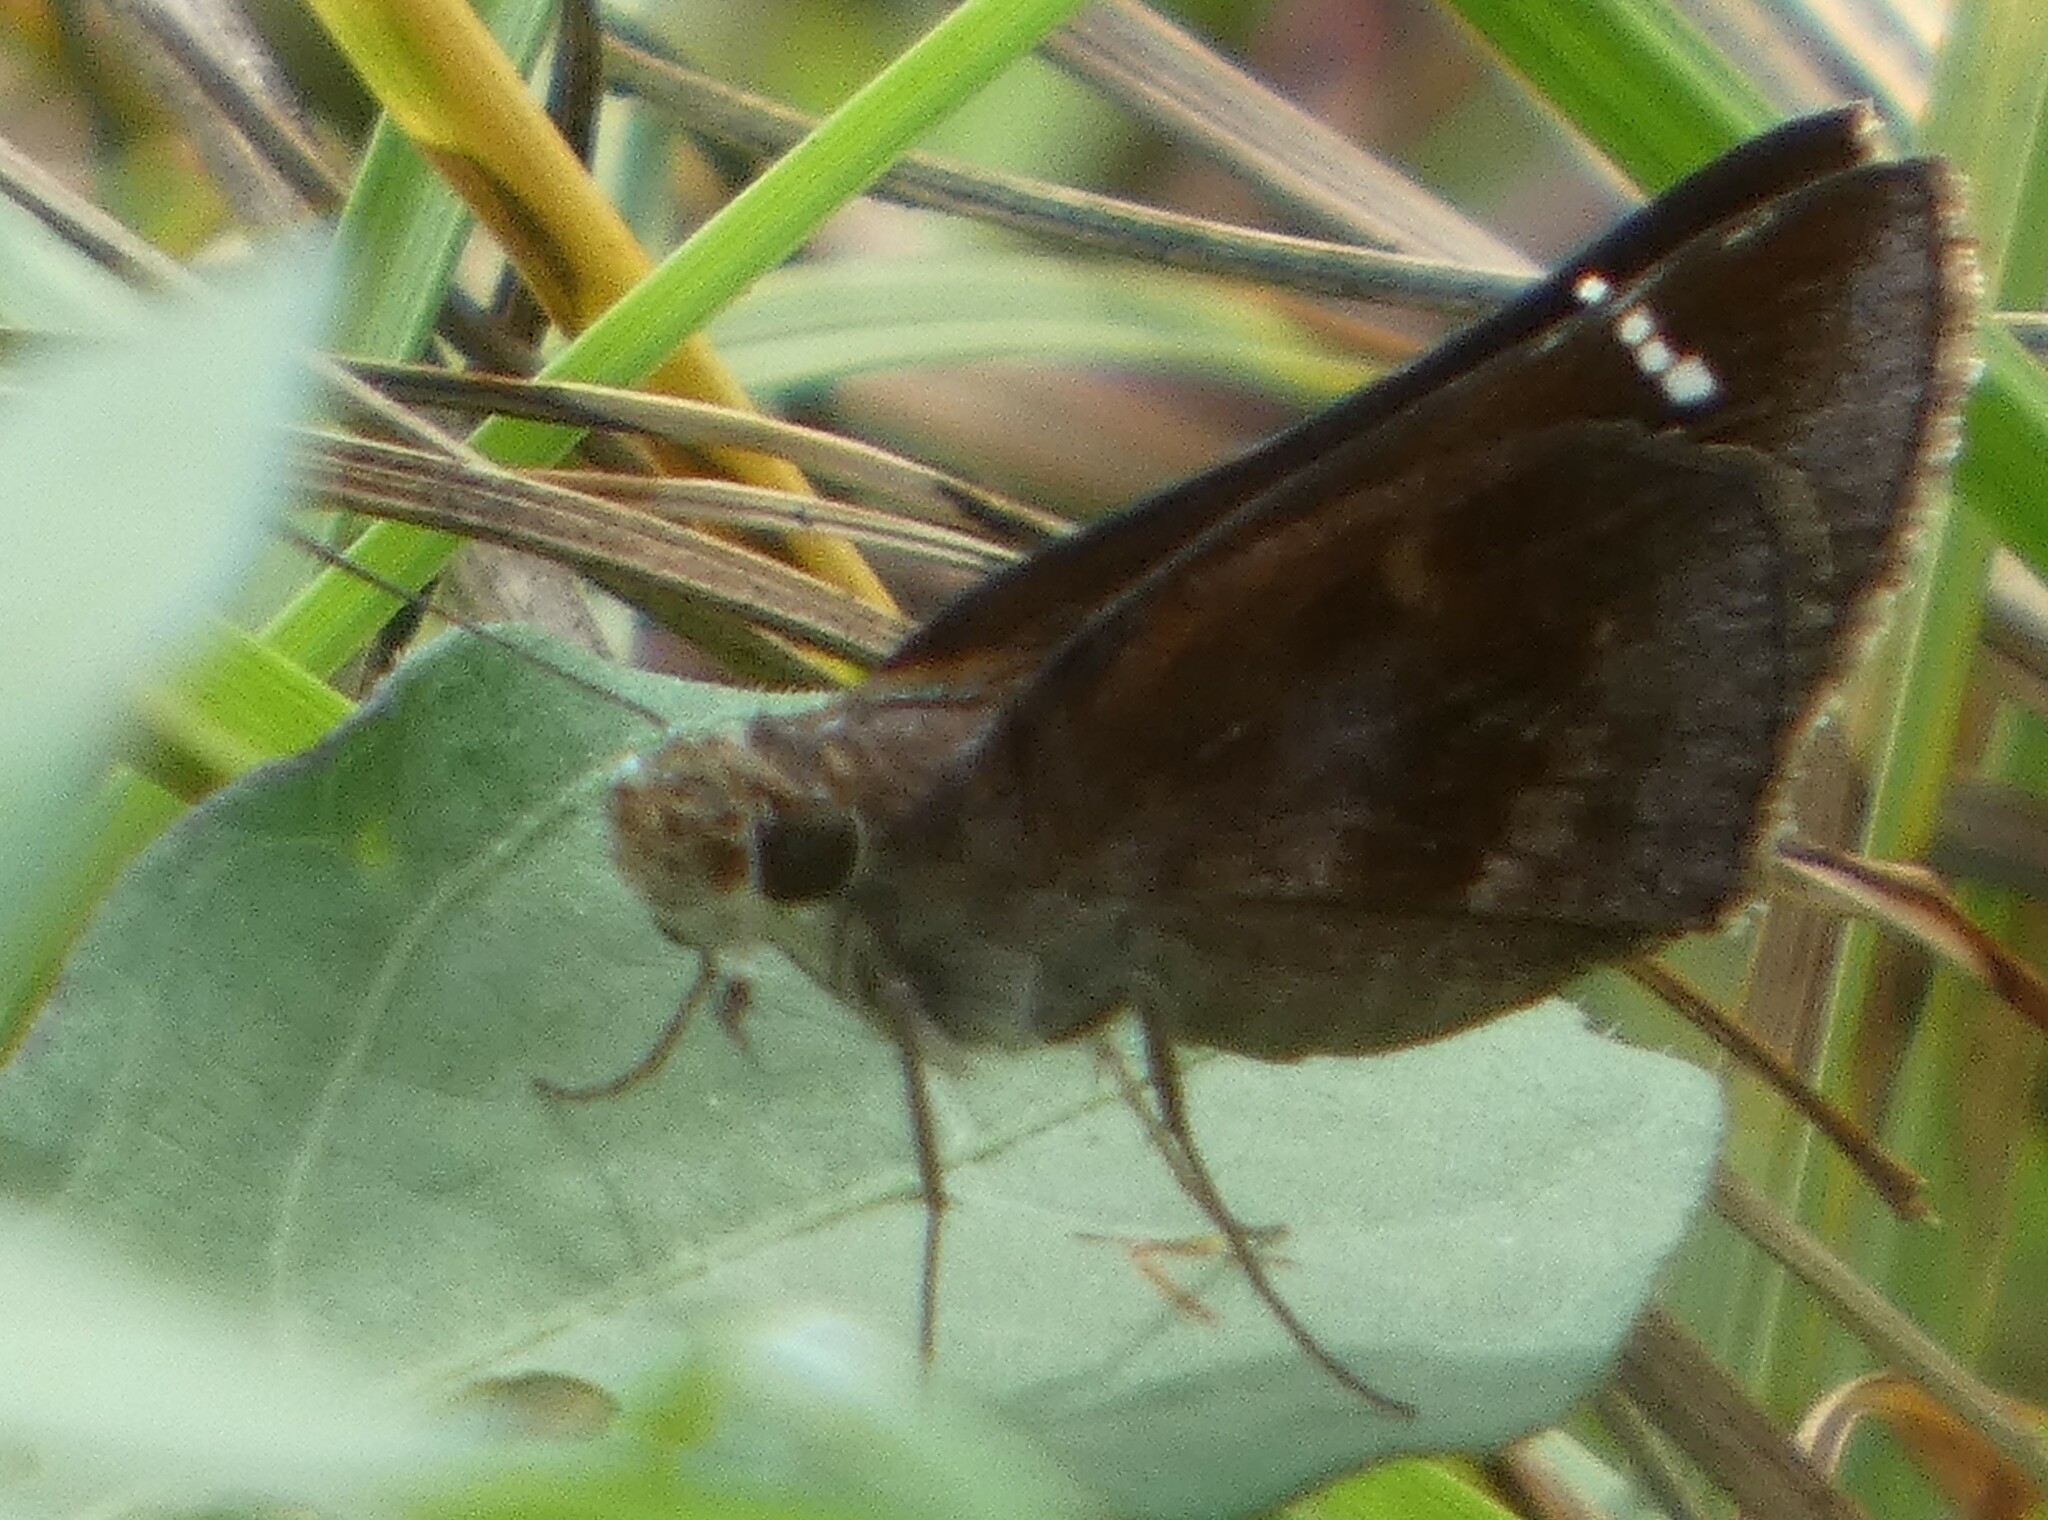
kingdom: Animalia
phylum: Arthropoda
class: Insecta
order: Lepidoptera
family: Hesperiidae
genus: Lerema
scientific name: Lerema accius
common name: Clouded skipper
